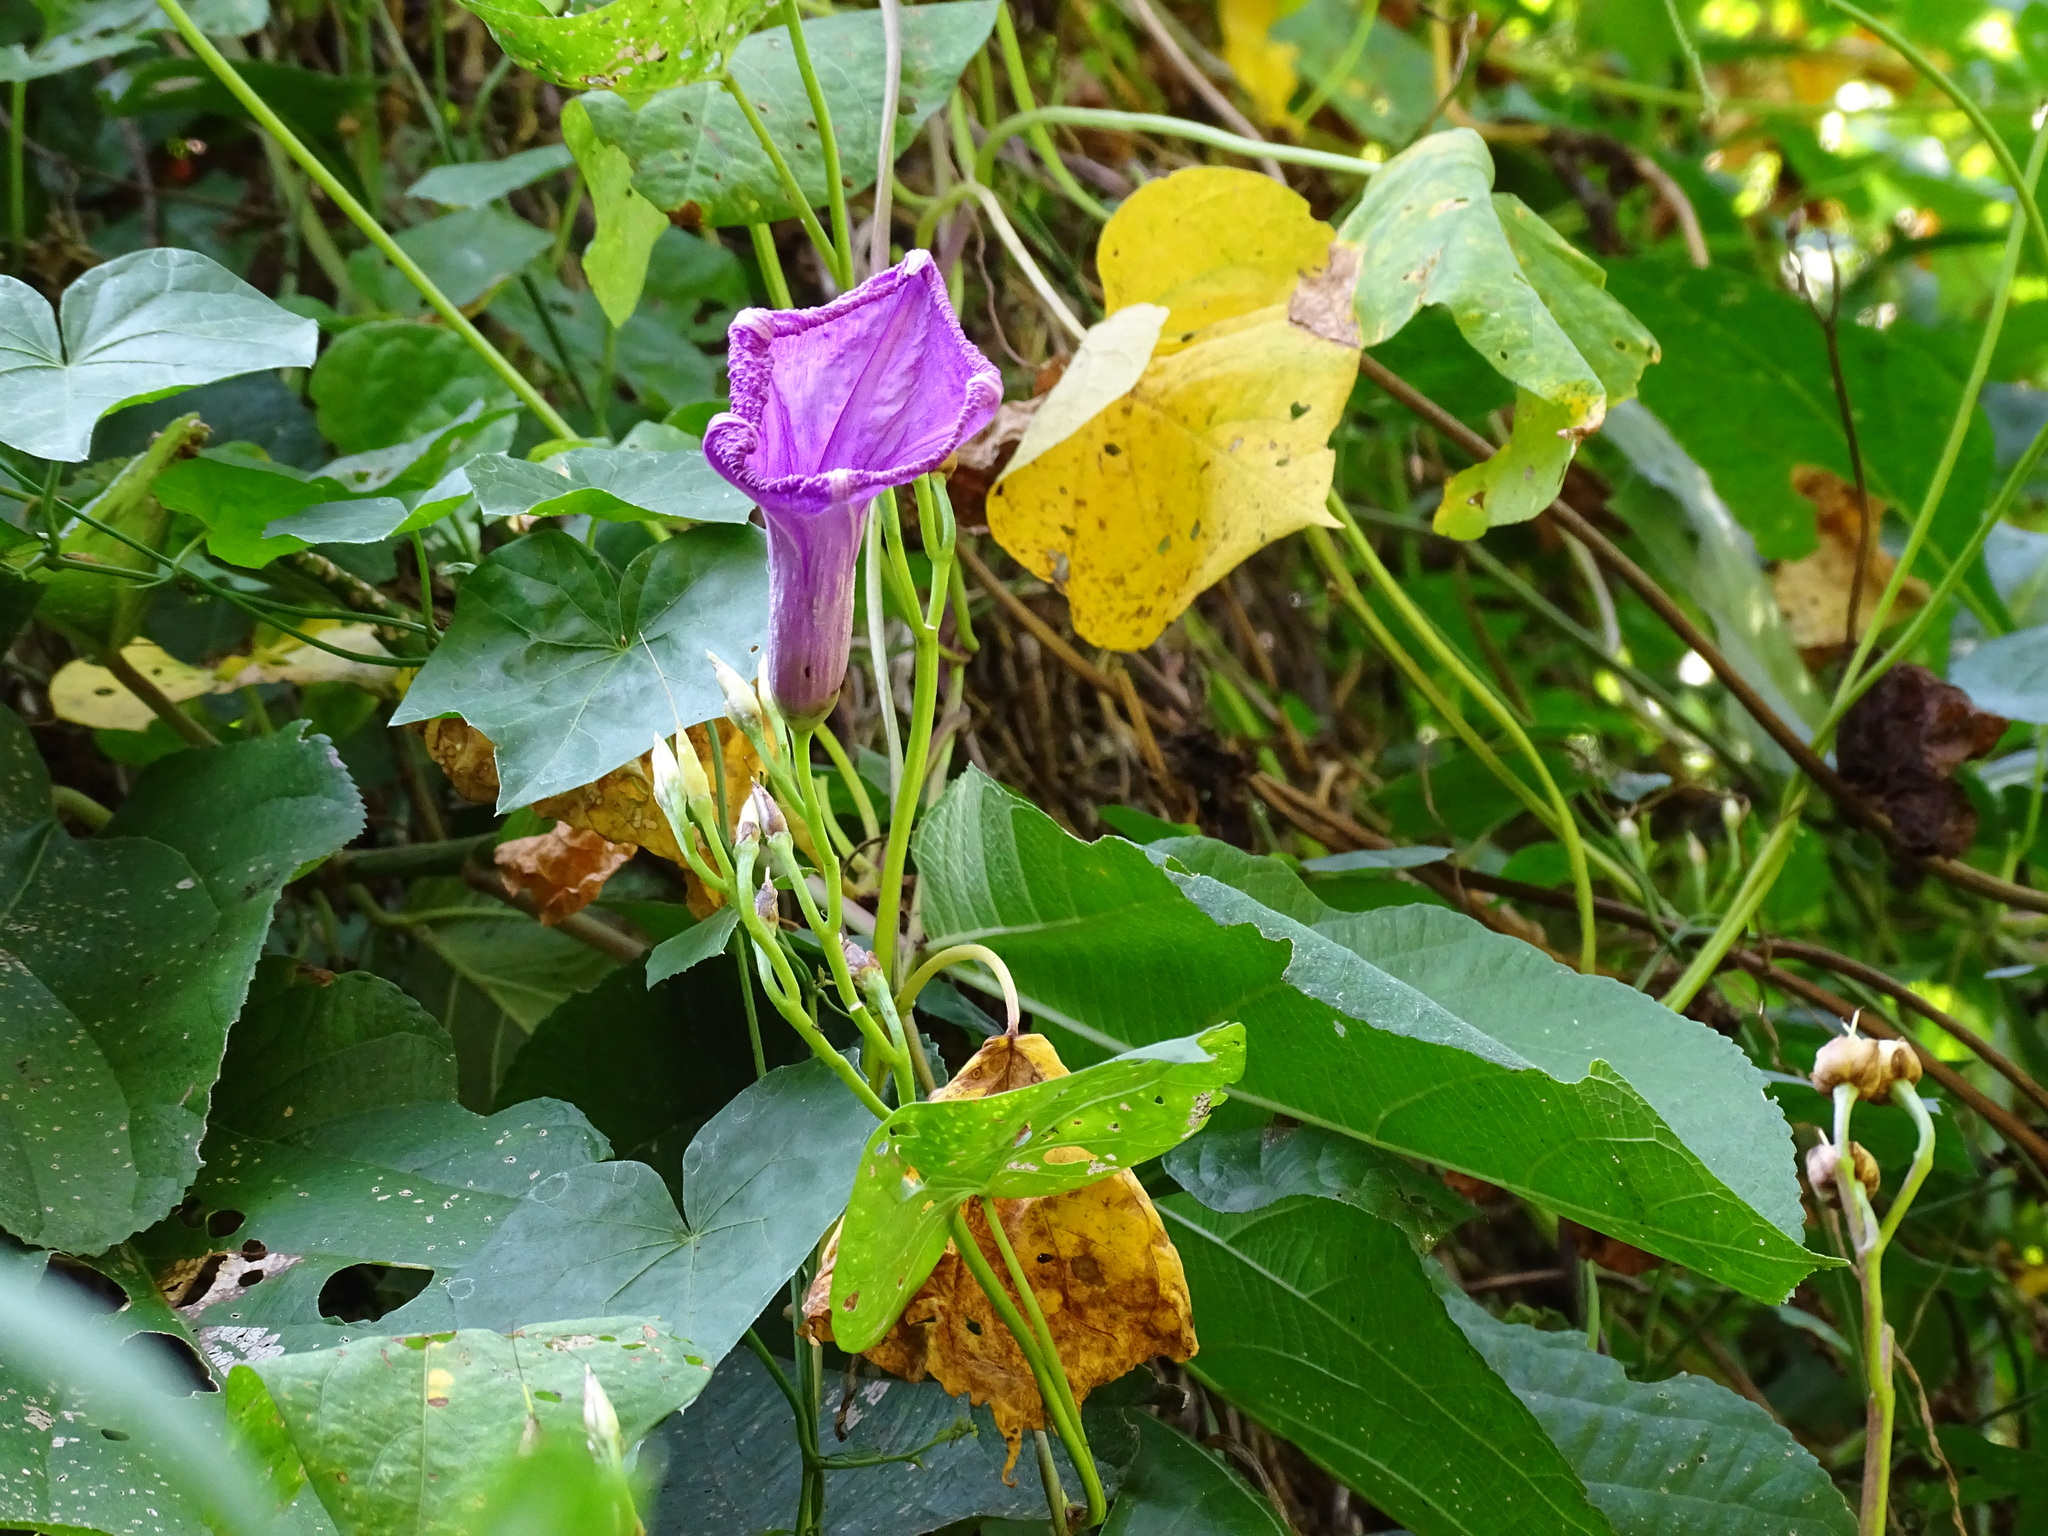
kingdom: Plantae
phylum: Tracheophyta
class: Magnoliopsida
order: Solanales
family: Convolvulaceae
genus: Ipomoea
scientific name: Ipomoea splendor-sylvae
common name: Morning glory
